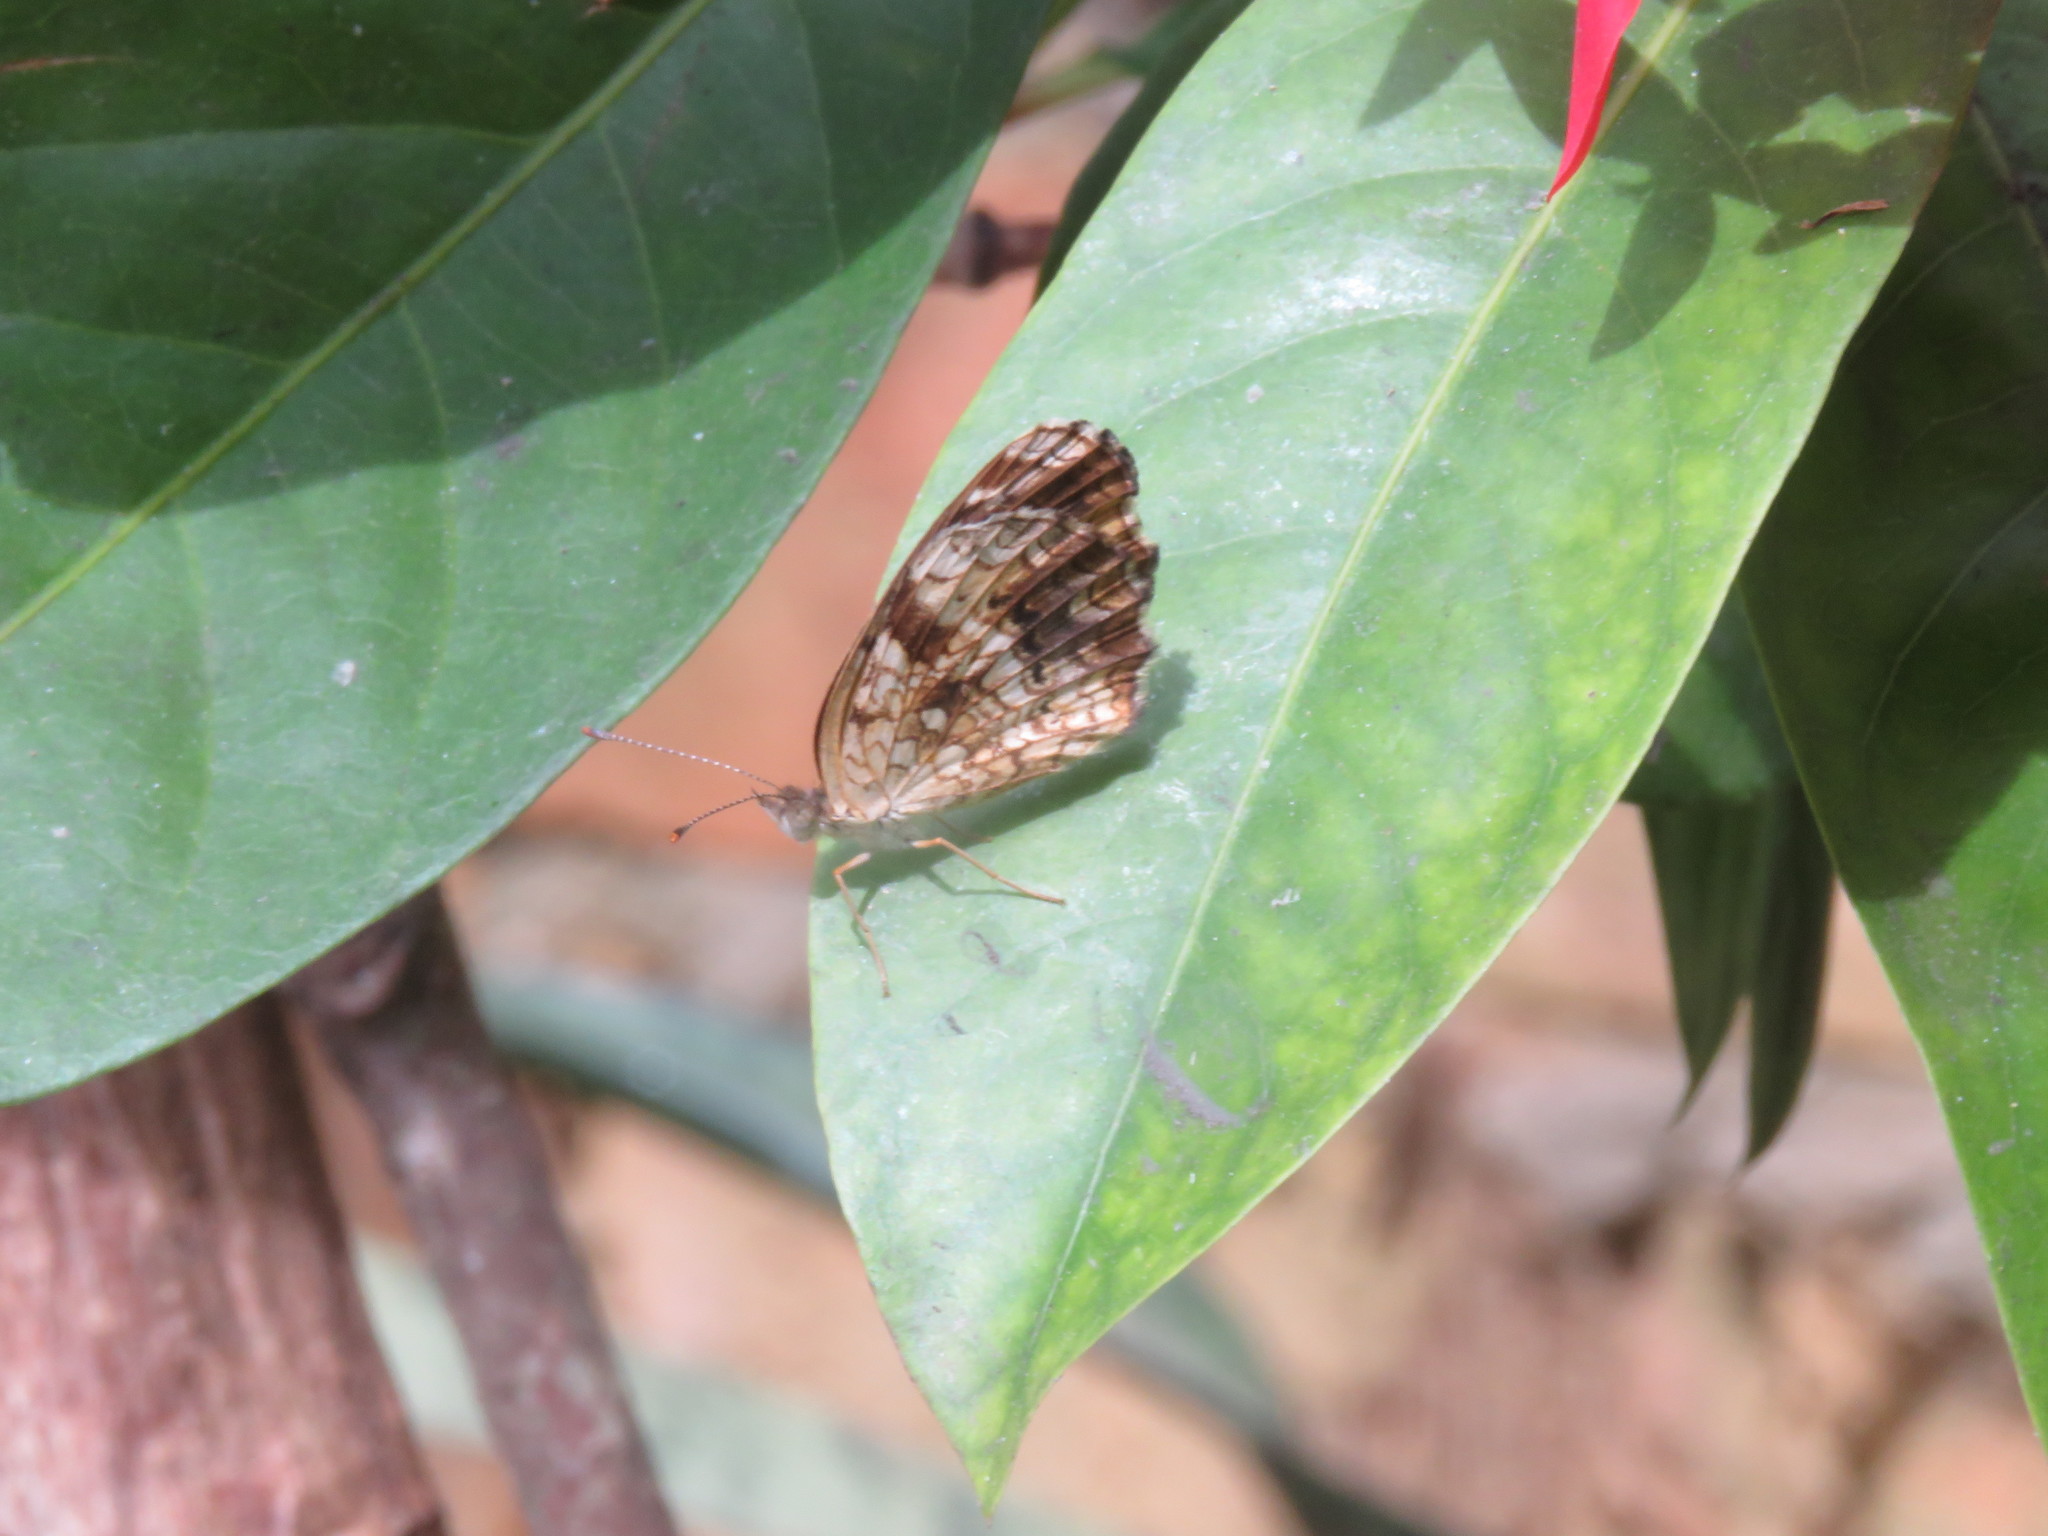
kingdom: Animalia
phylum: Arthropoda
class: Insecta
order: Lepidoptera
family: Nymphalidae
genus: Anthanassa
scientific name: Anthanassa hermas
